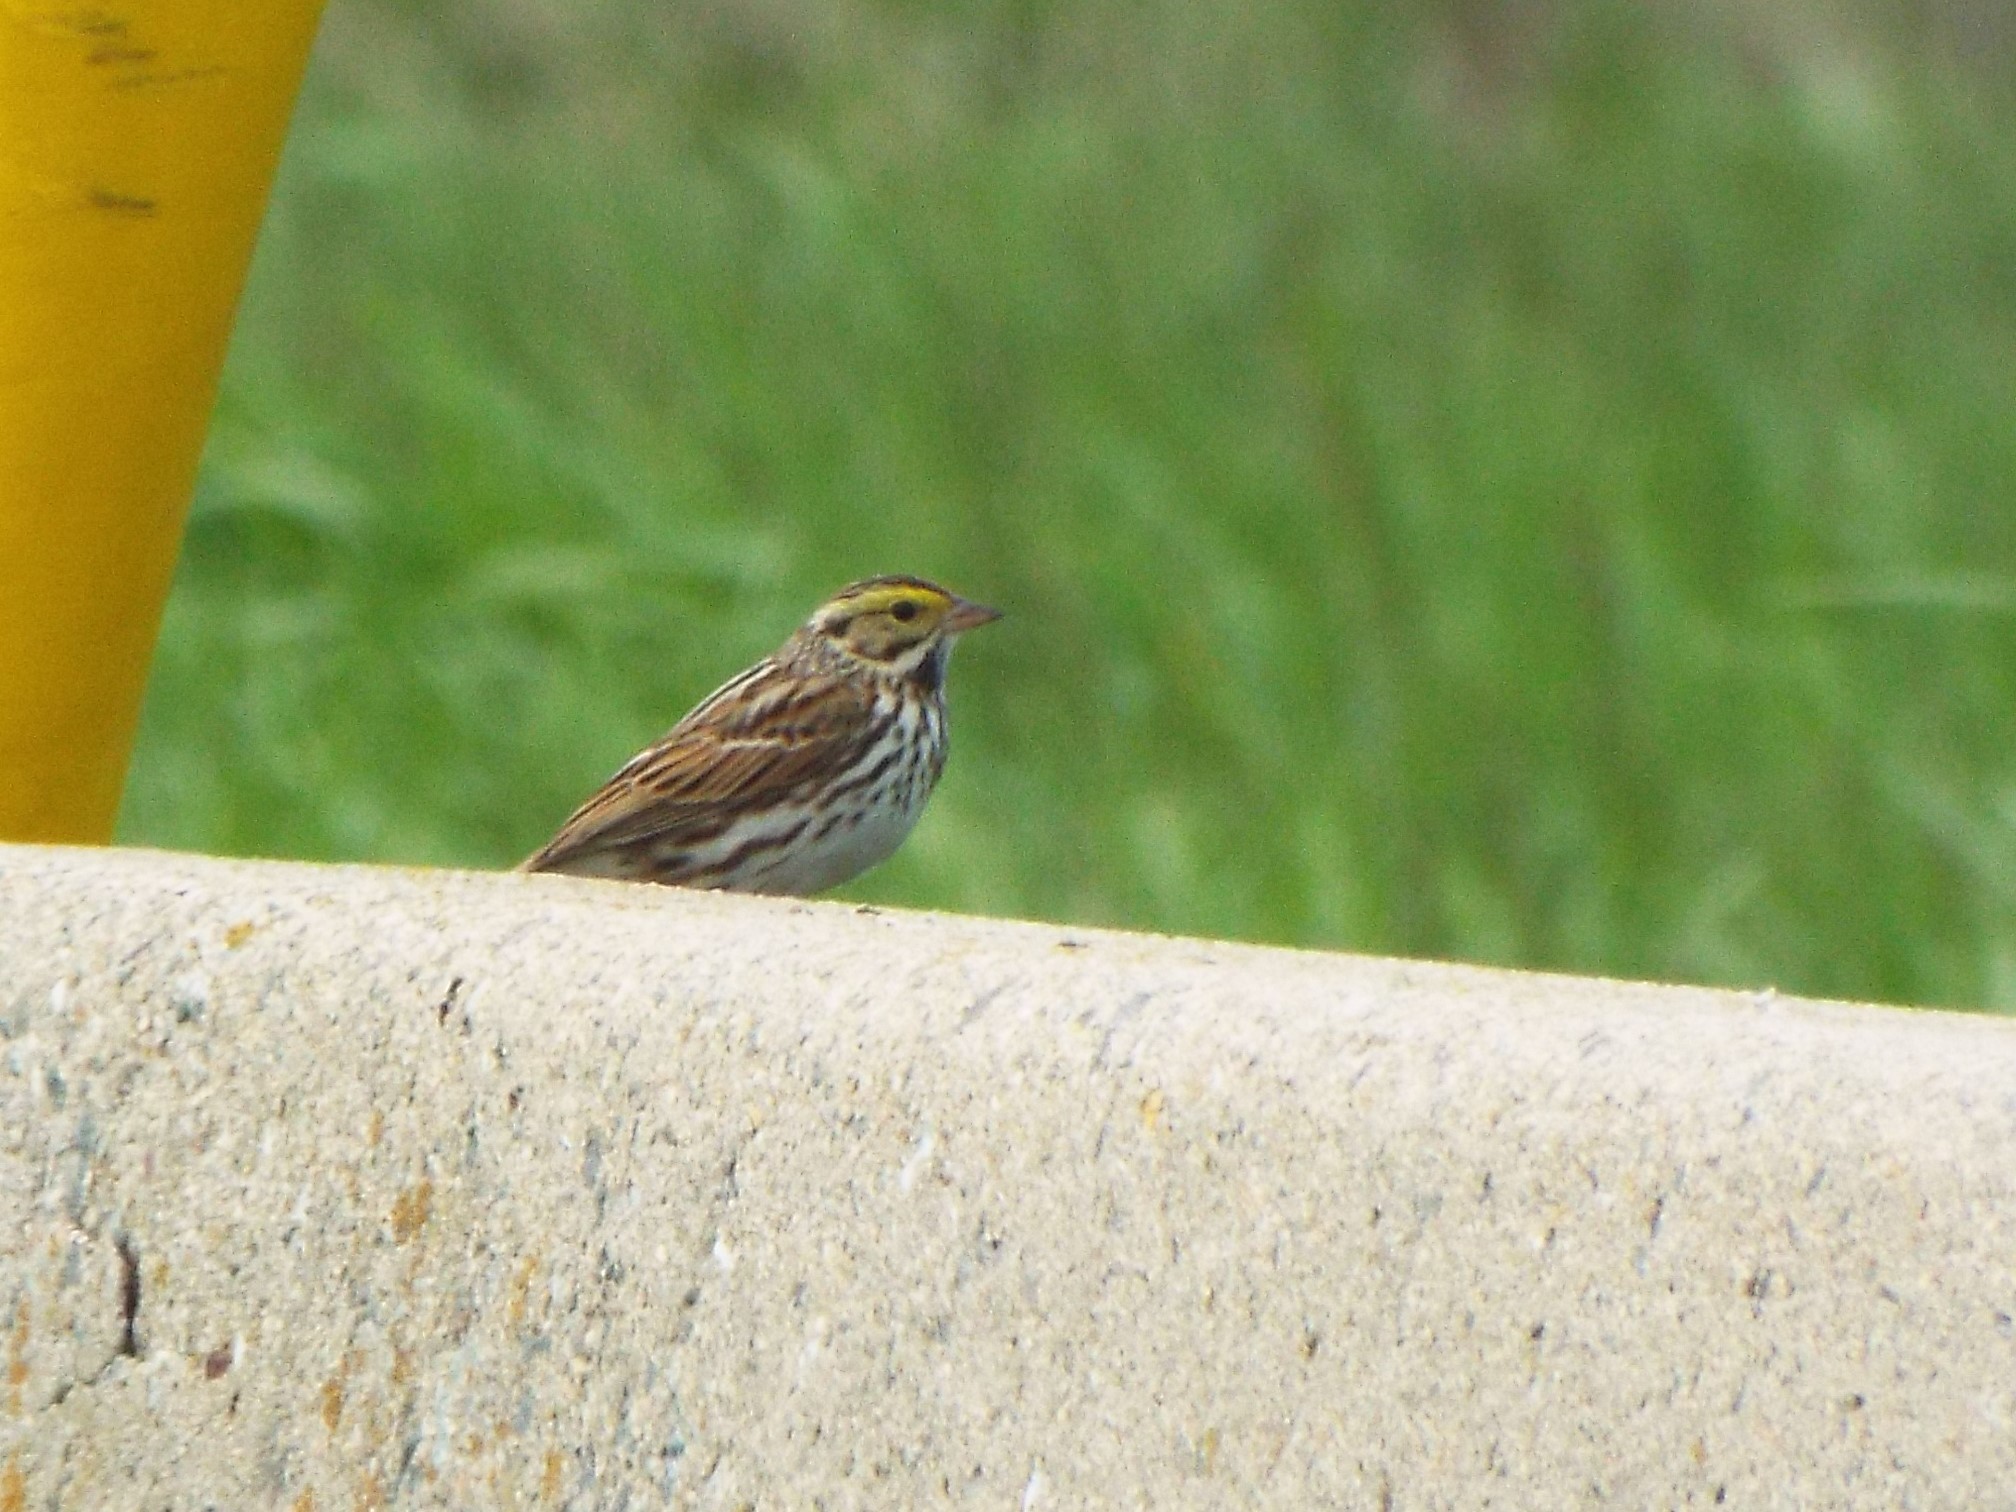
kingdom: Animalia
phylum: Chordata
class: Aves
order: Passeriformes
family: Passerellidae
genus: Passerculus
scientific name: Passerculus sandwichensis
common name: Savannah sparrow
